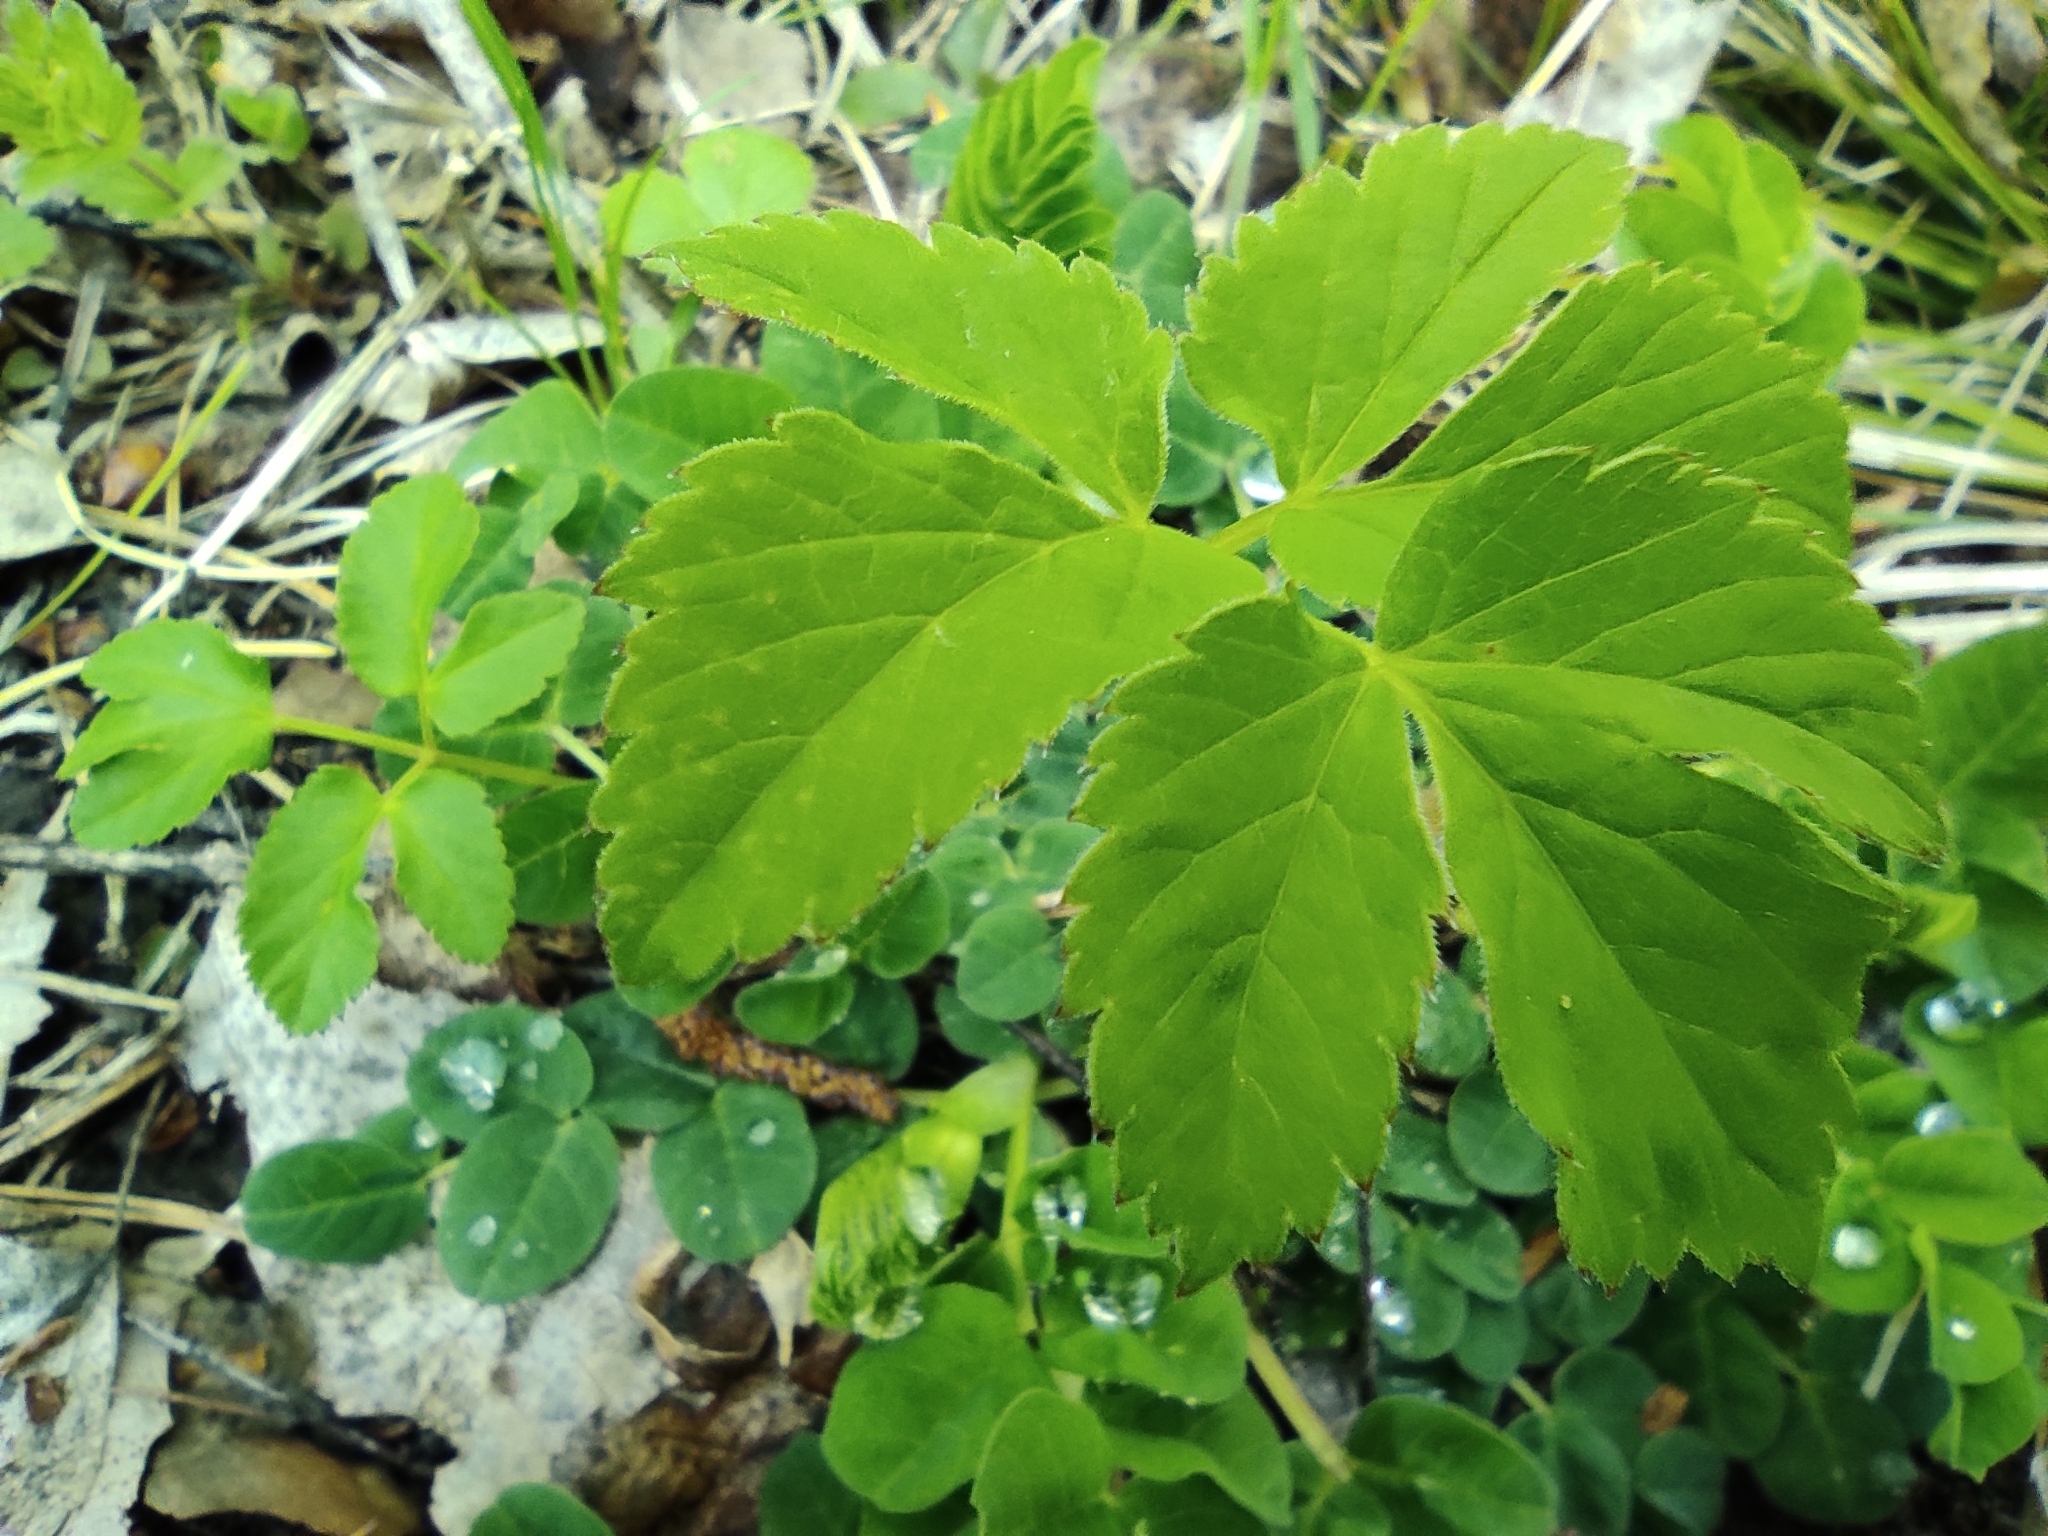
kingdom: Plantae
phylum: Tracheophyta
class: Magnoliopsida
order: Apiales
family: Apiaceae
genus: Aegopodium
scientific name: Aegopodium podagraria
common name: Ground-elder
